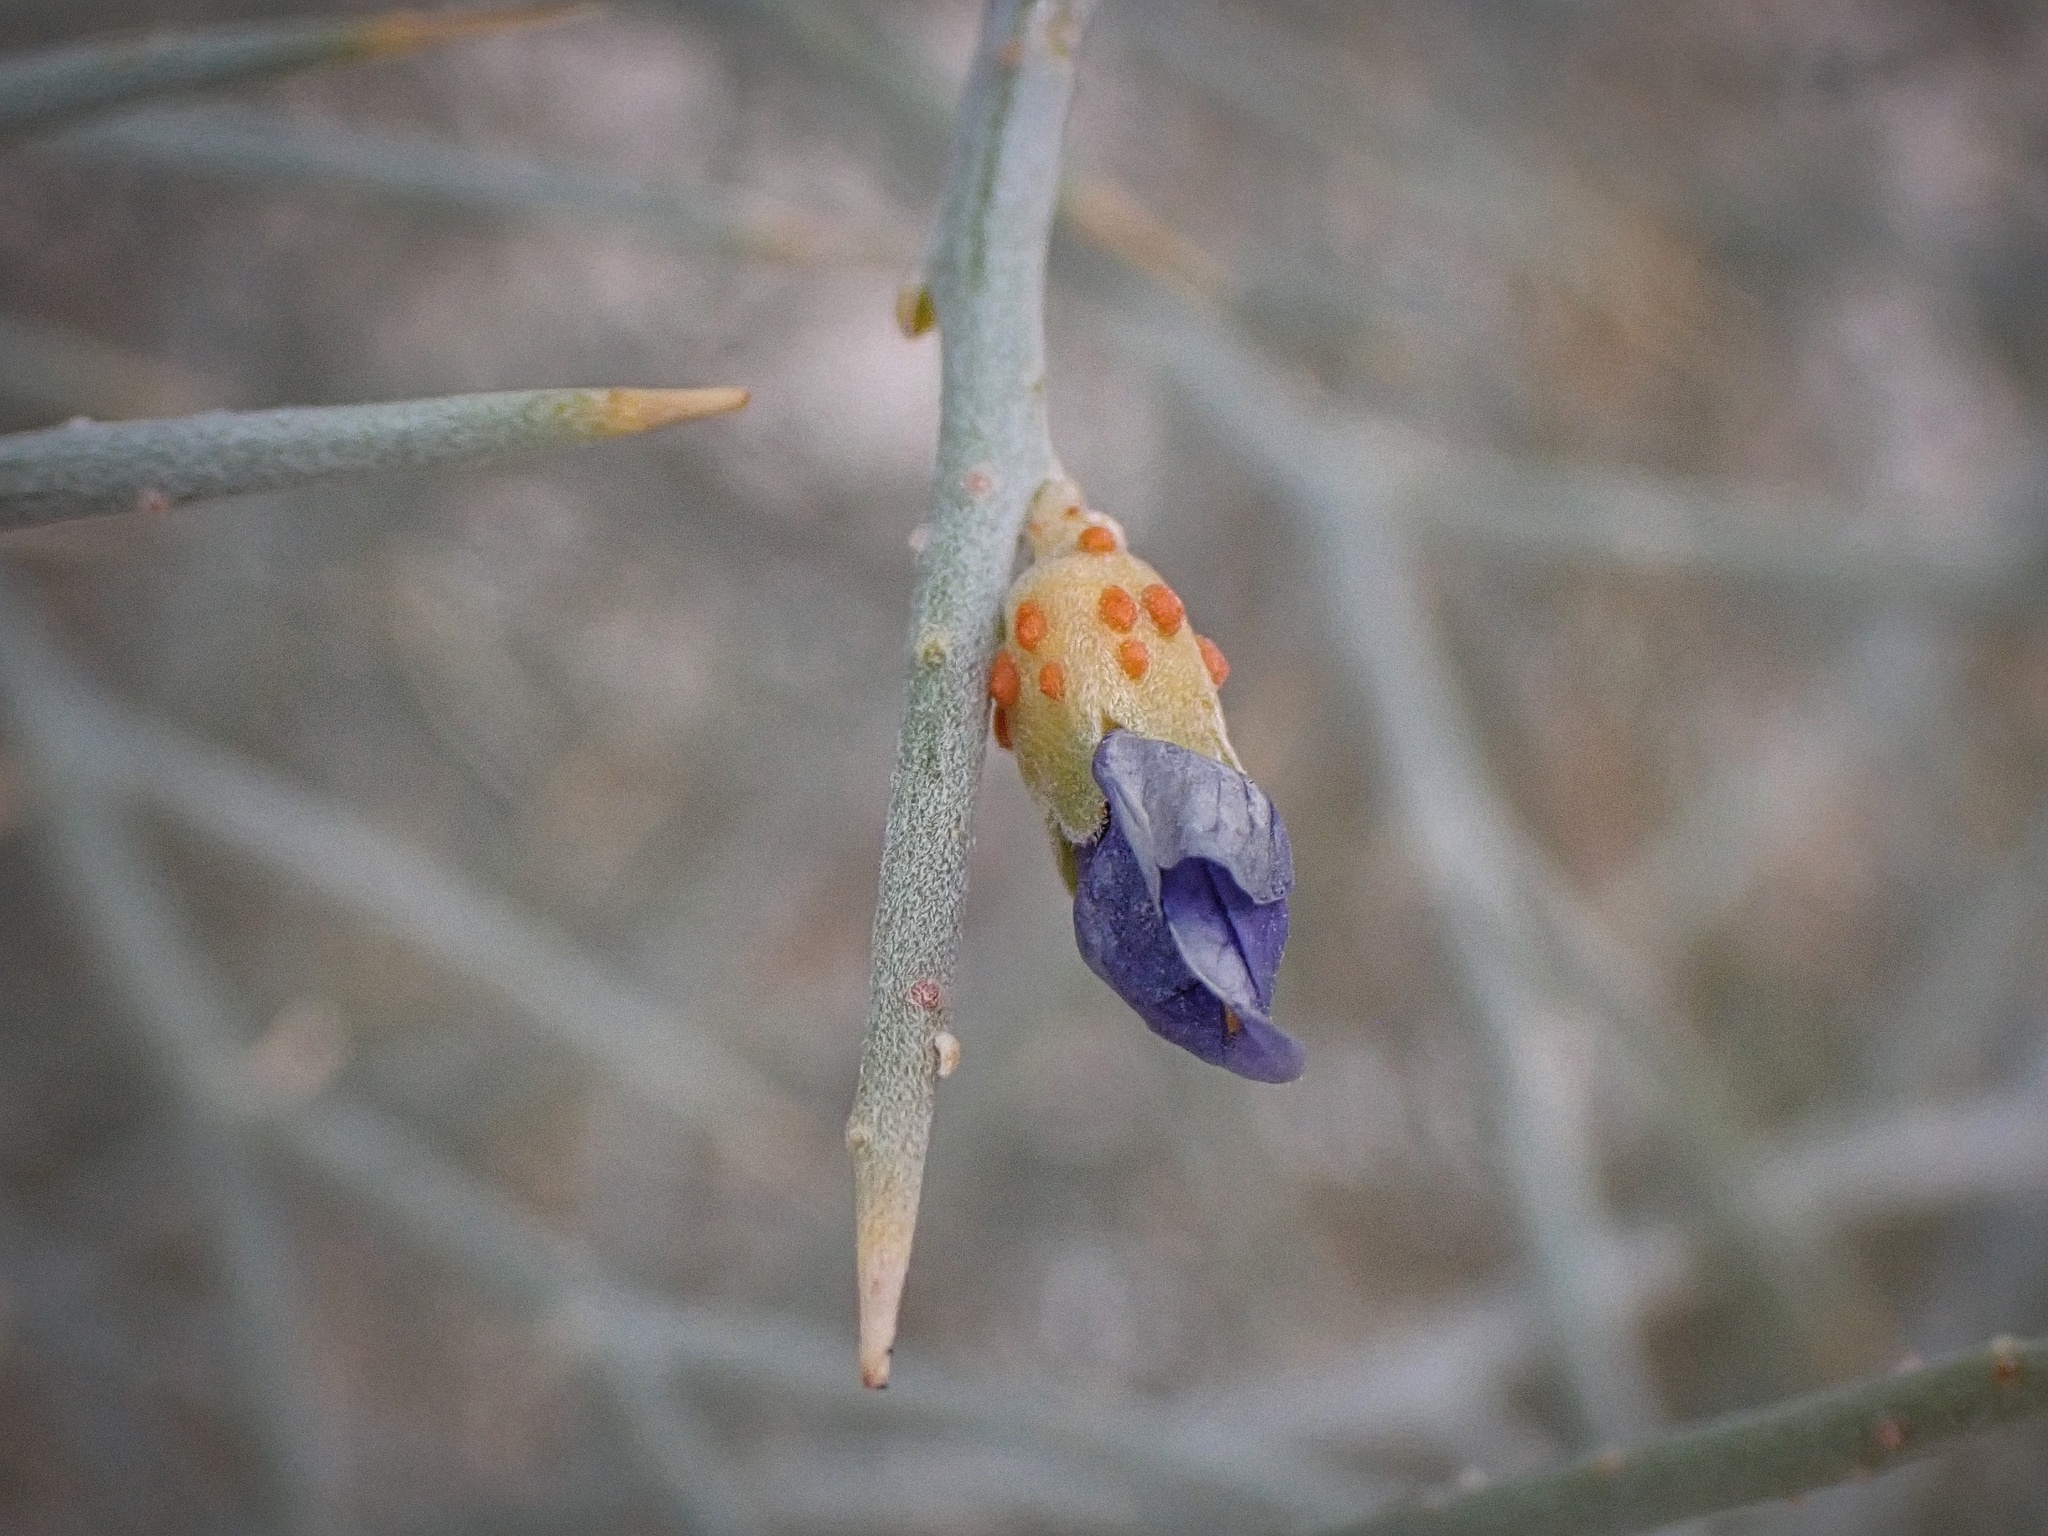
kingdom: Plantae
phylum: Tracheophyta
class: Magnoliopsida
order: Fabales
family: Fabaceae
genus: Psorothamnus
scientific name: Psorothamnus spinosus
